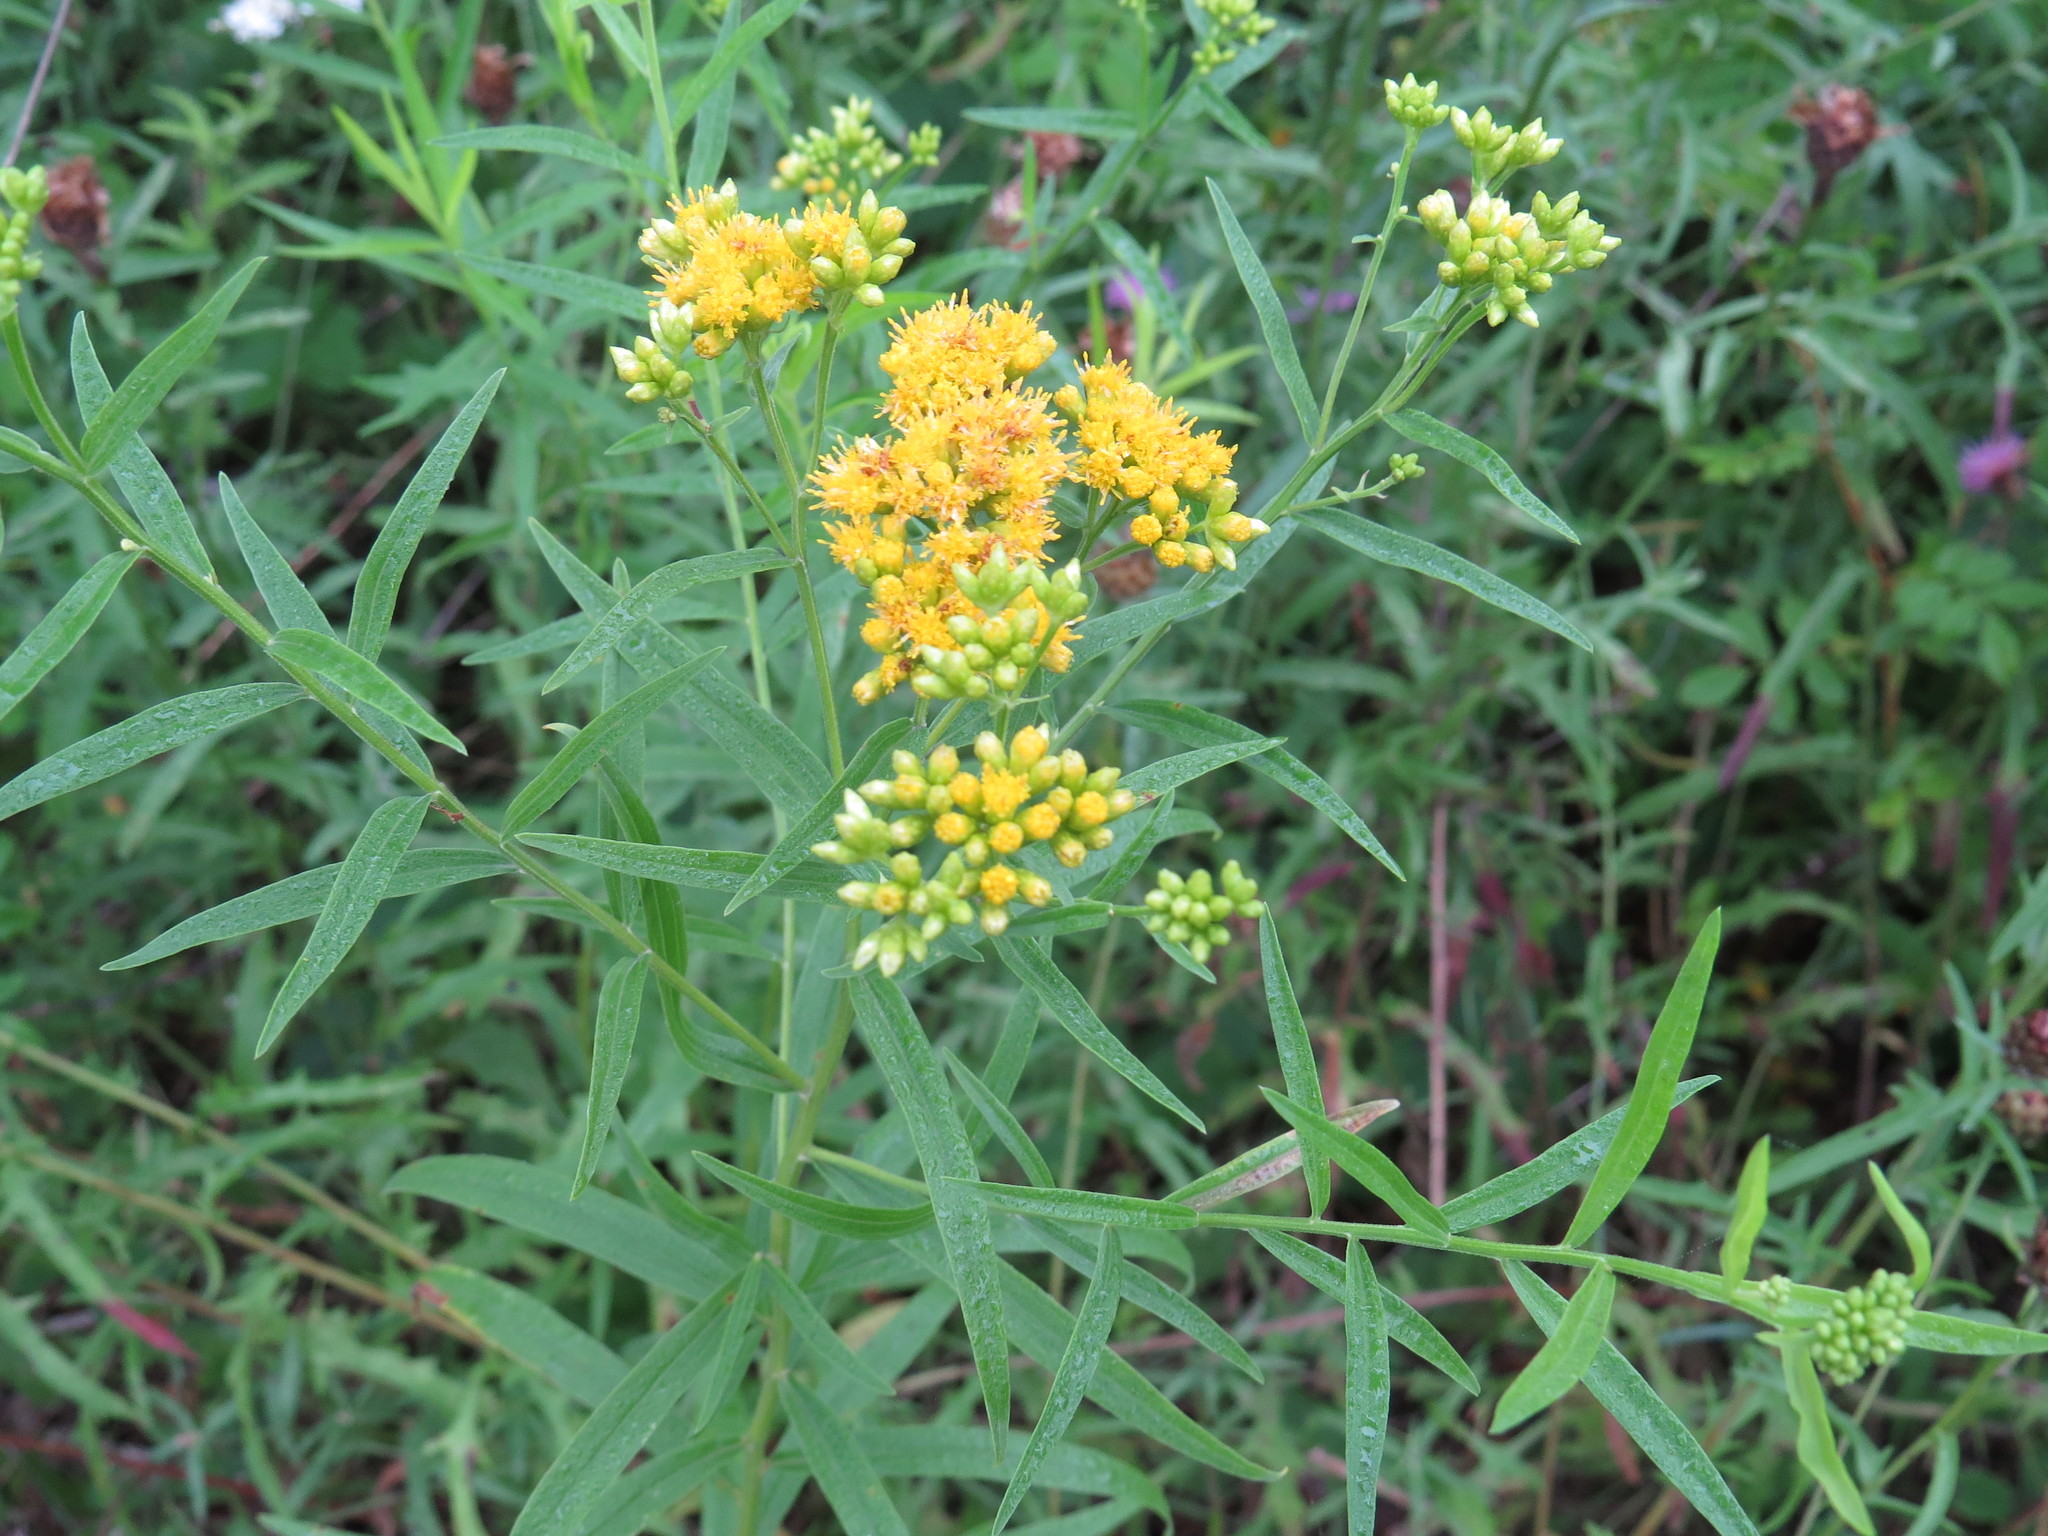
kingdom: Plantae
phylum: Tracheophyta
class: Magnoliopsida
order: Asterales
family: Asteraceae
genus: Euthamia
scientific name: Euthamia graminifolia
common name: Common goldentop
